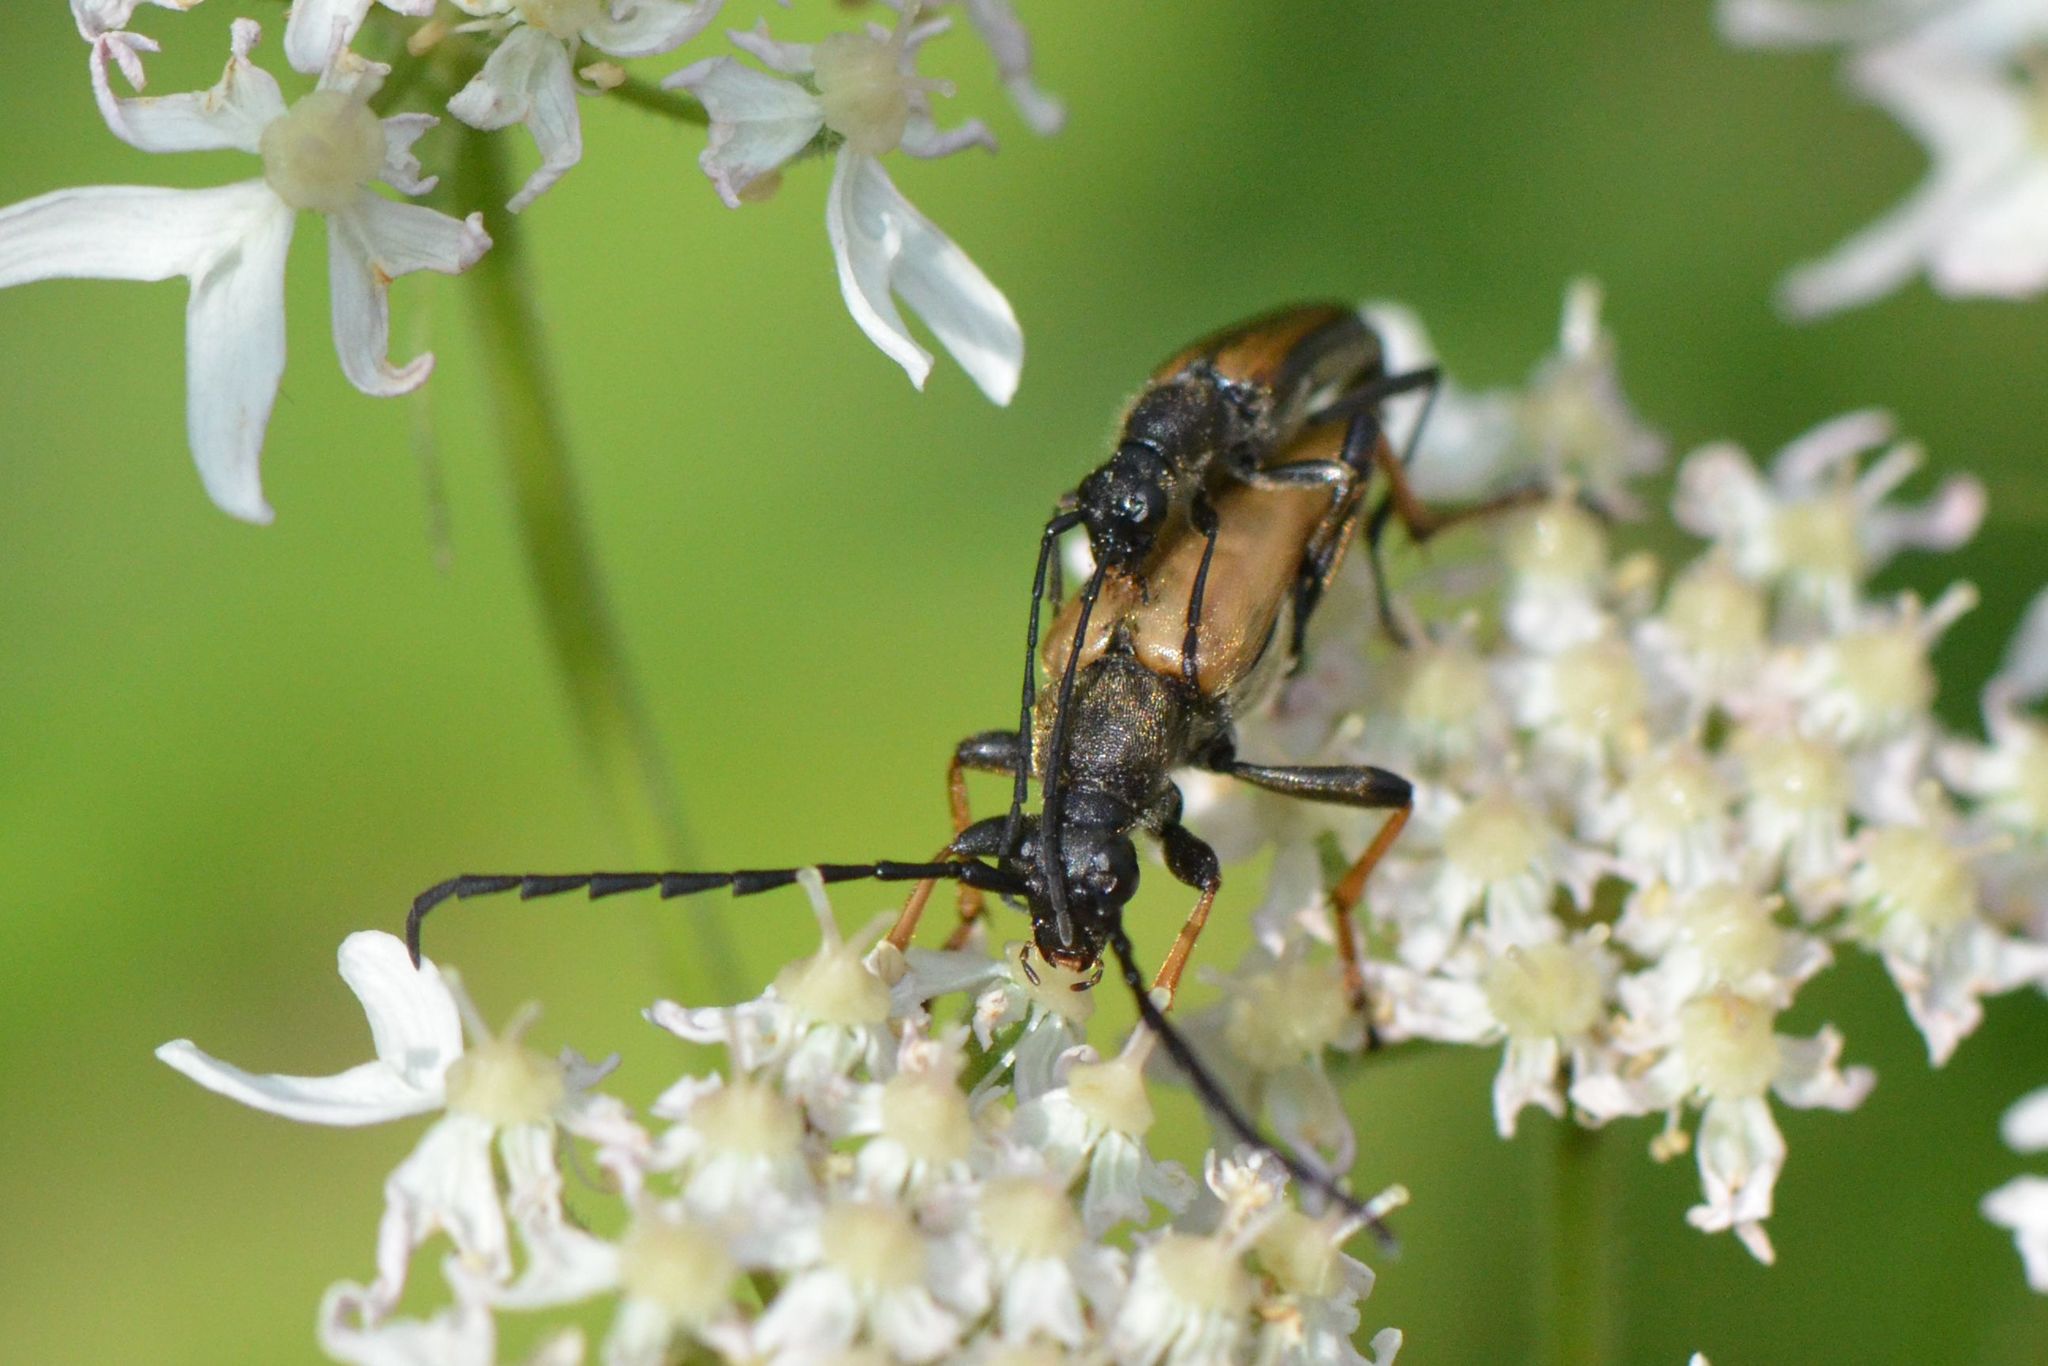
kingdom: Animalia
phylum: Arthropoda
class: Insecta
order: Coleoptera
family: Cerambycidae
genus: Stictoleptura
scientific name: Stictoleptura rubra
